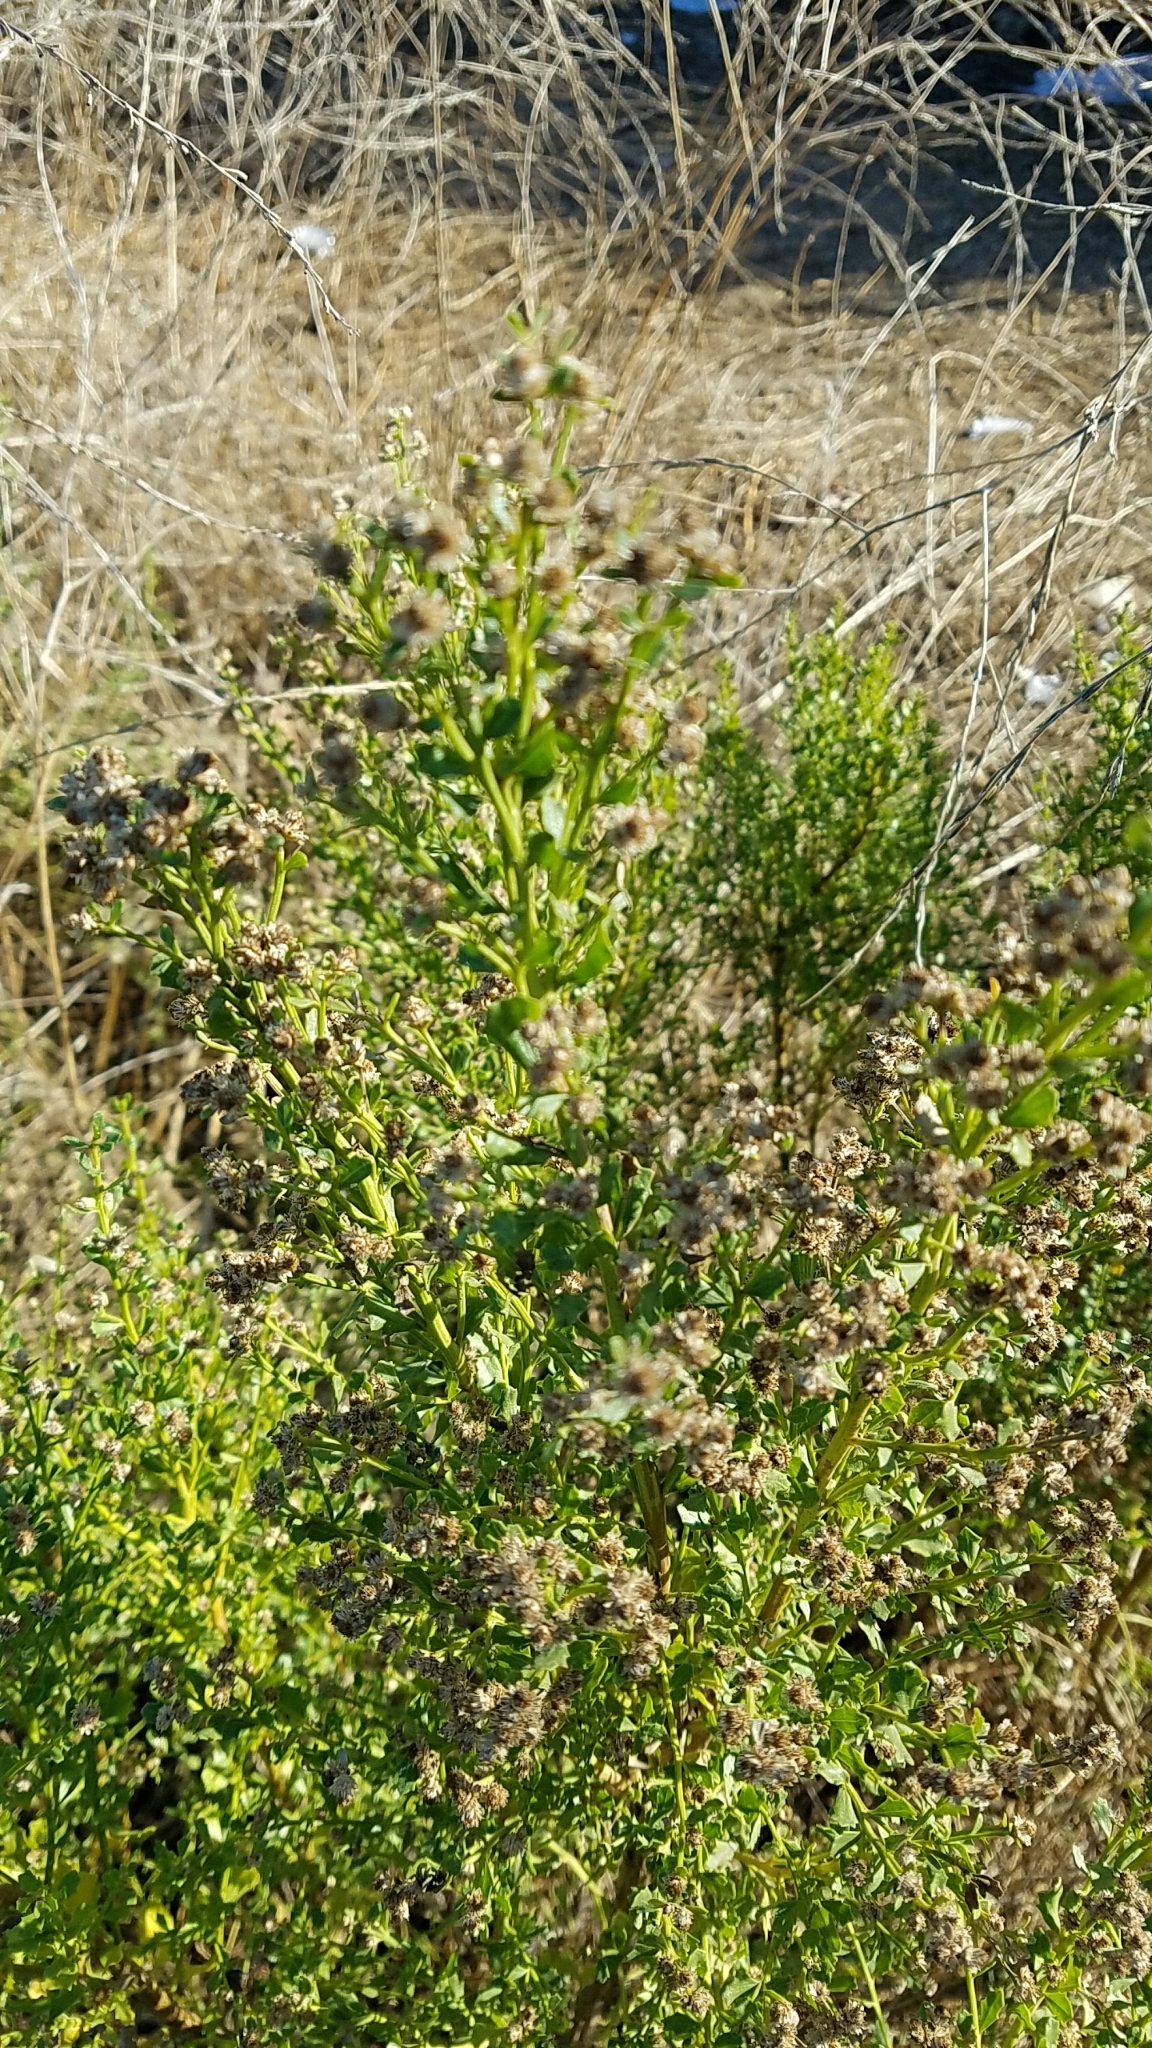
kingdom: Plantae
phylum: Tracheophyta
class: Magnoliopsida
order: Asterales
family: Asteraceae
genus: Baccharis
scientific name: Baccharis pilularis
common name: Coyotebrush
